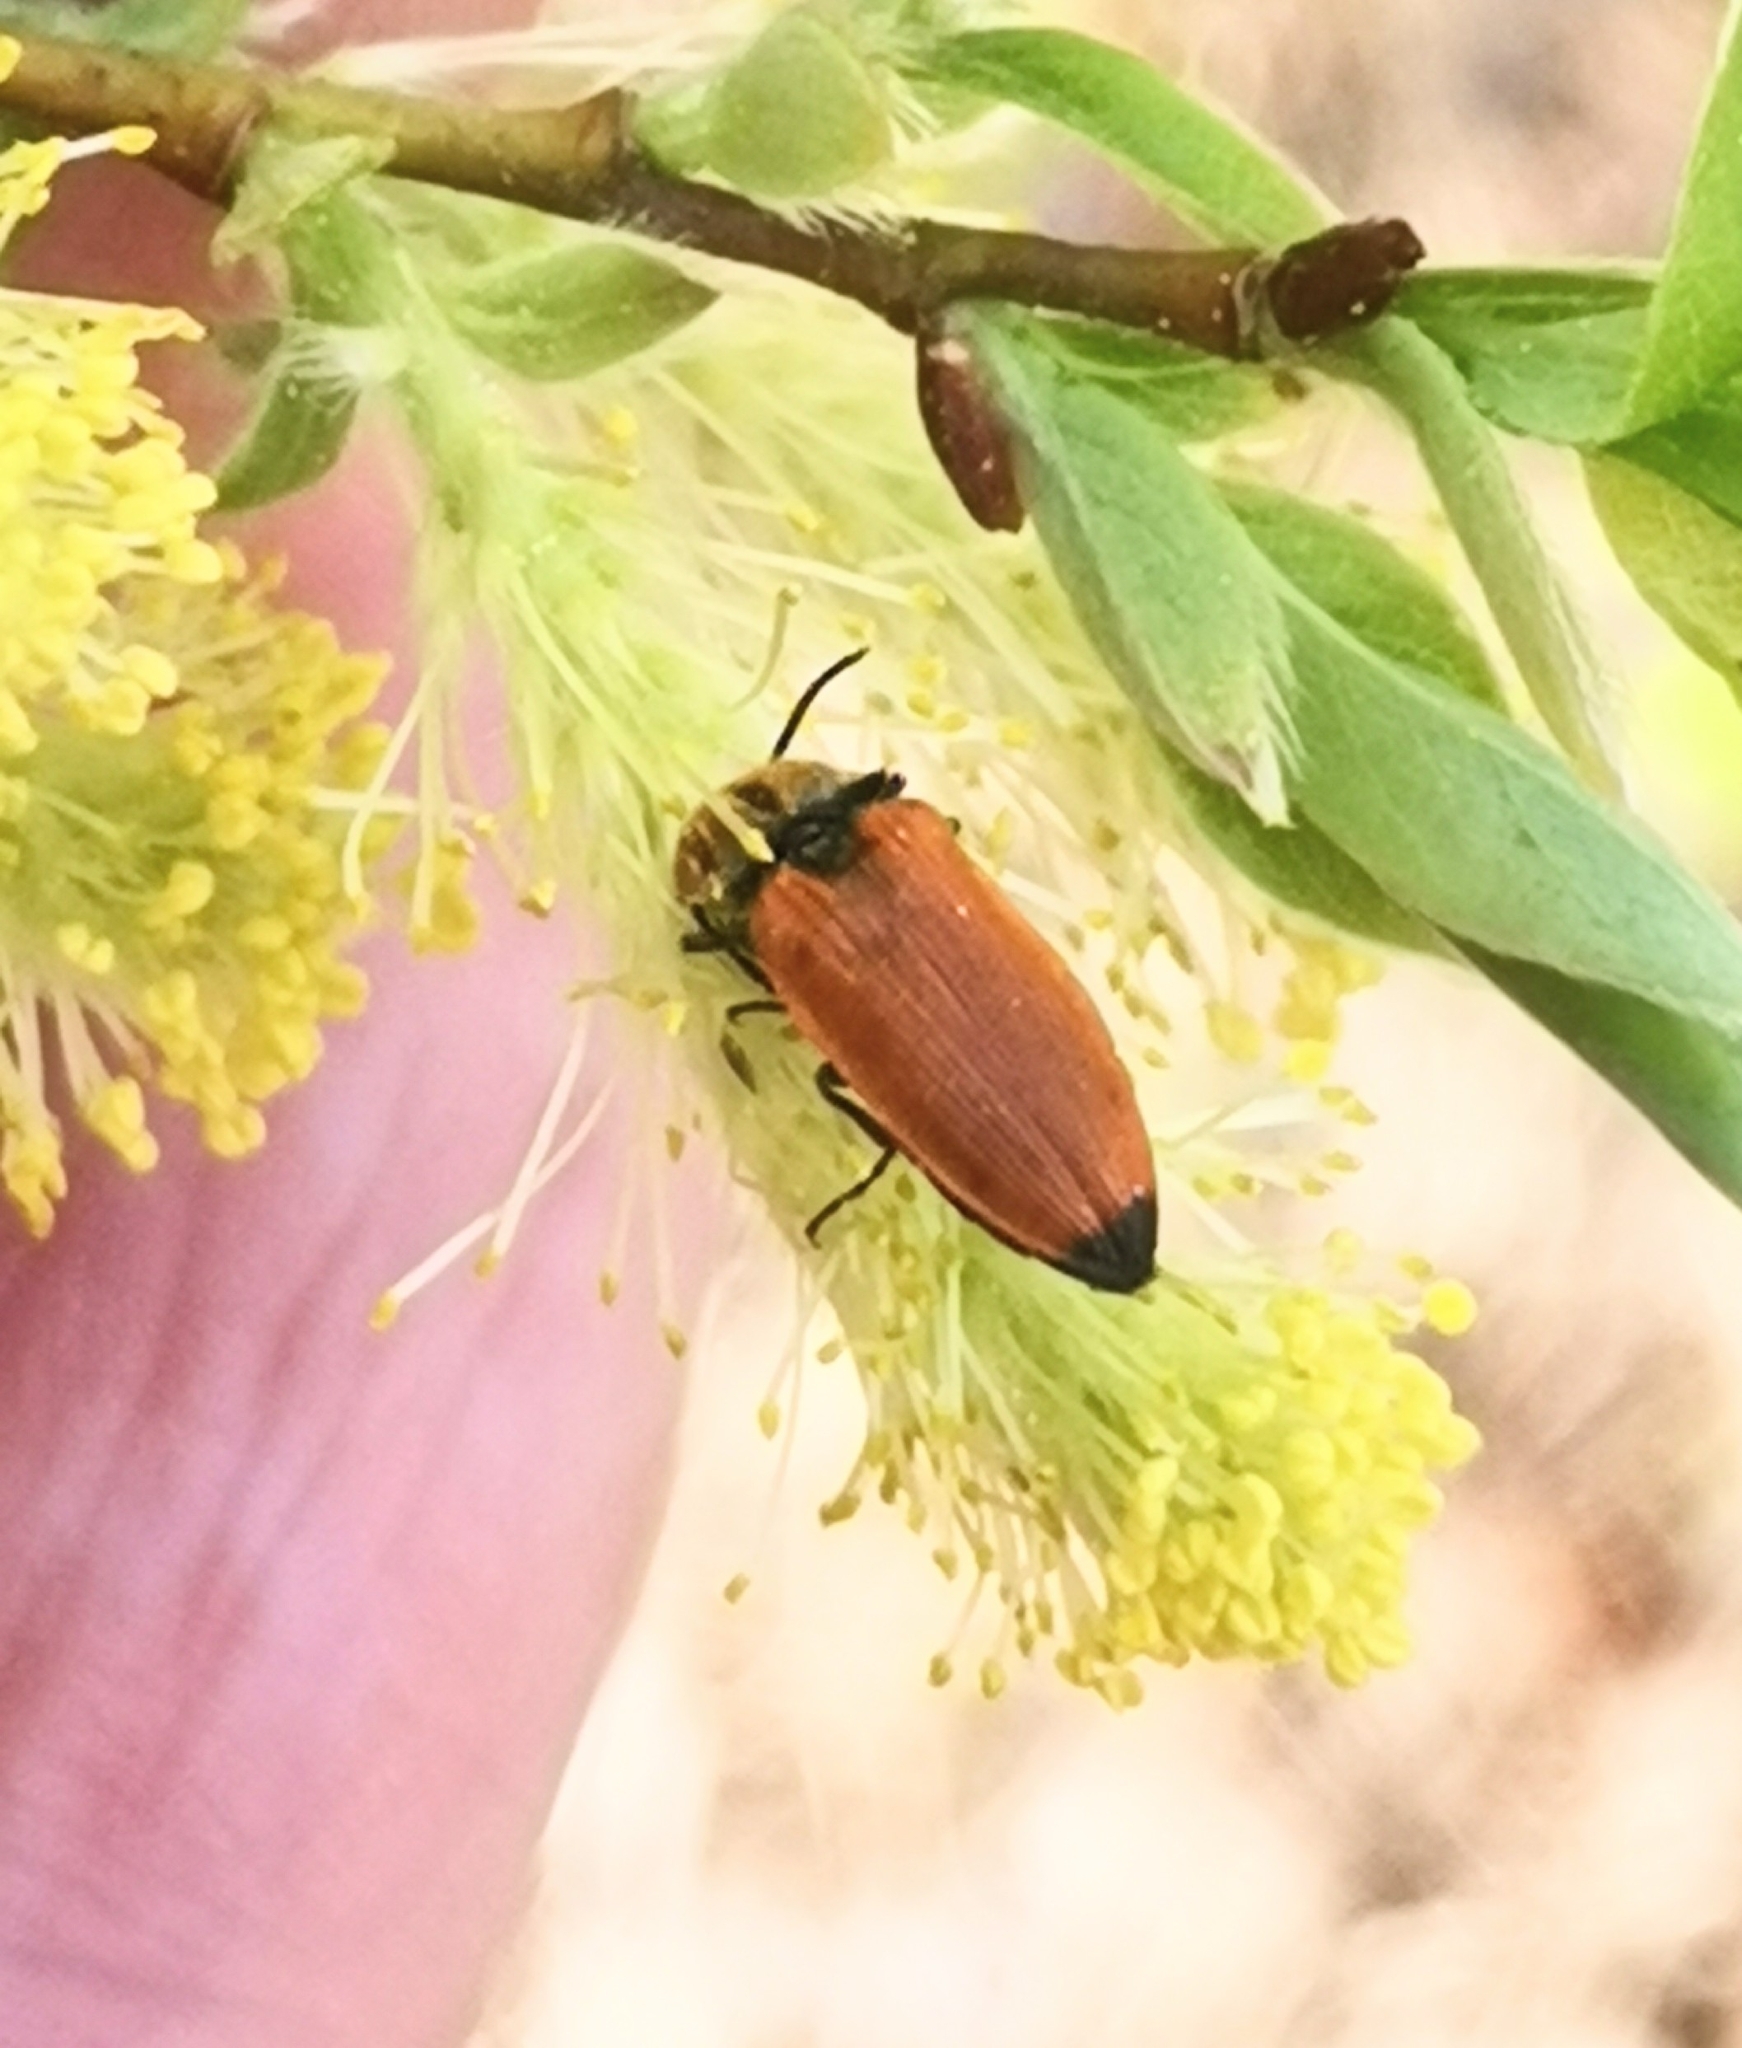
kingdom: Animalia
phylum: Arthropoda
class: Insecta
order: Coleoptera
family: Elateridae
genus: Anostirus
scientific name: Anostirus castaneus
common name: Chestnut coloured click beetle
